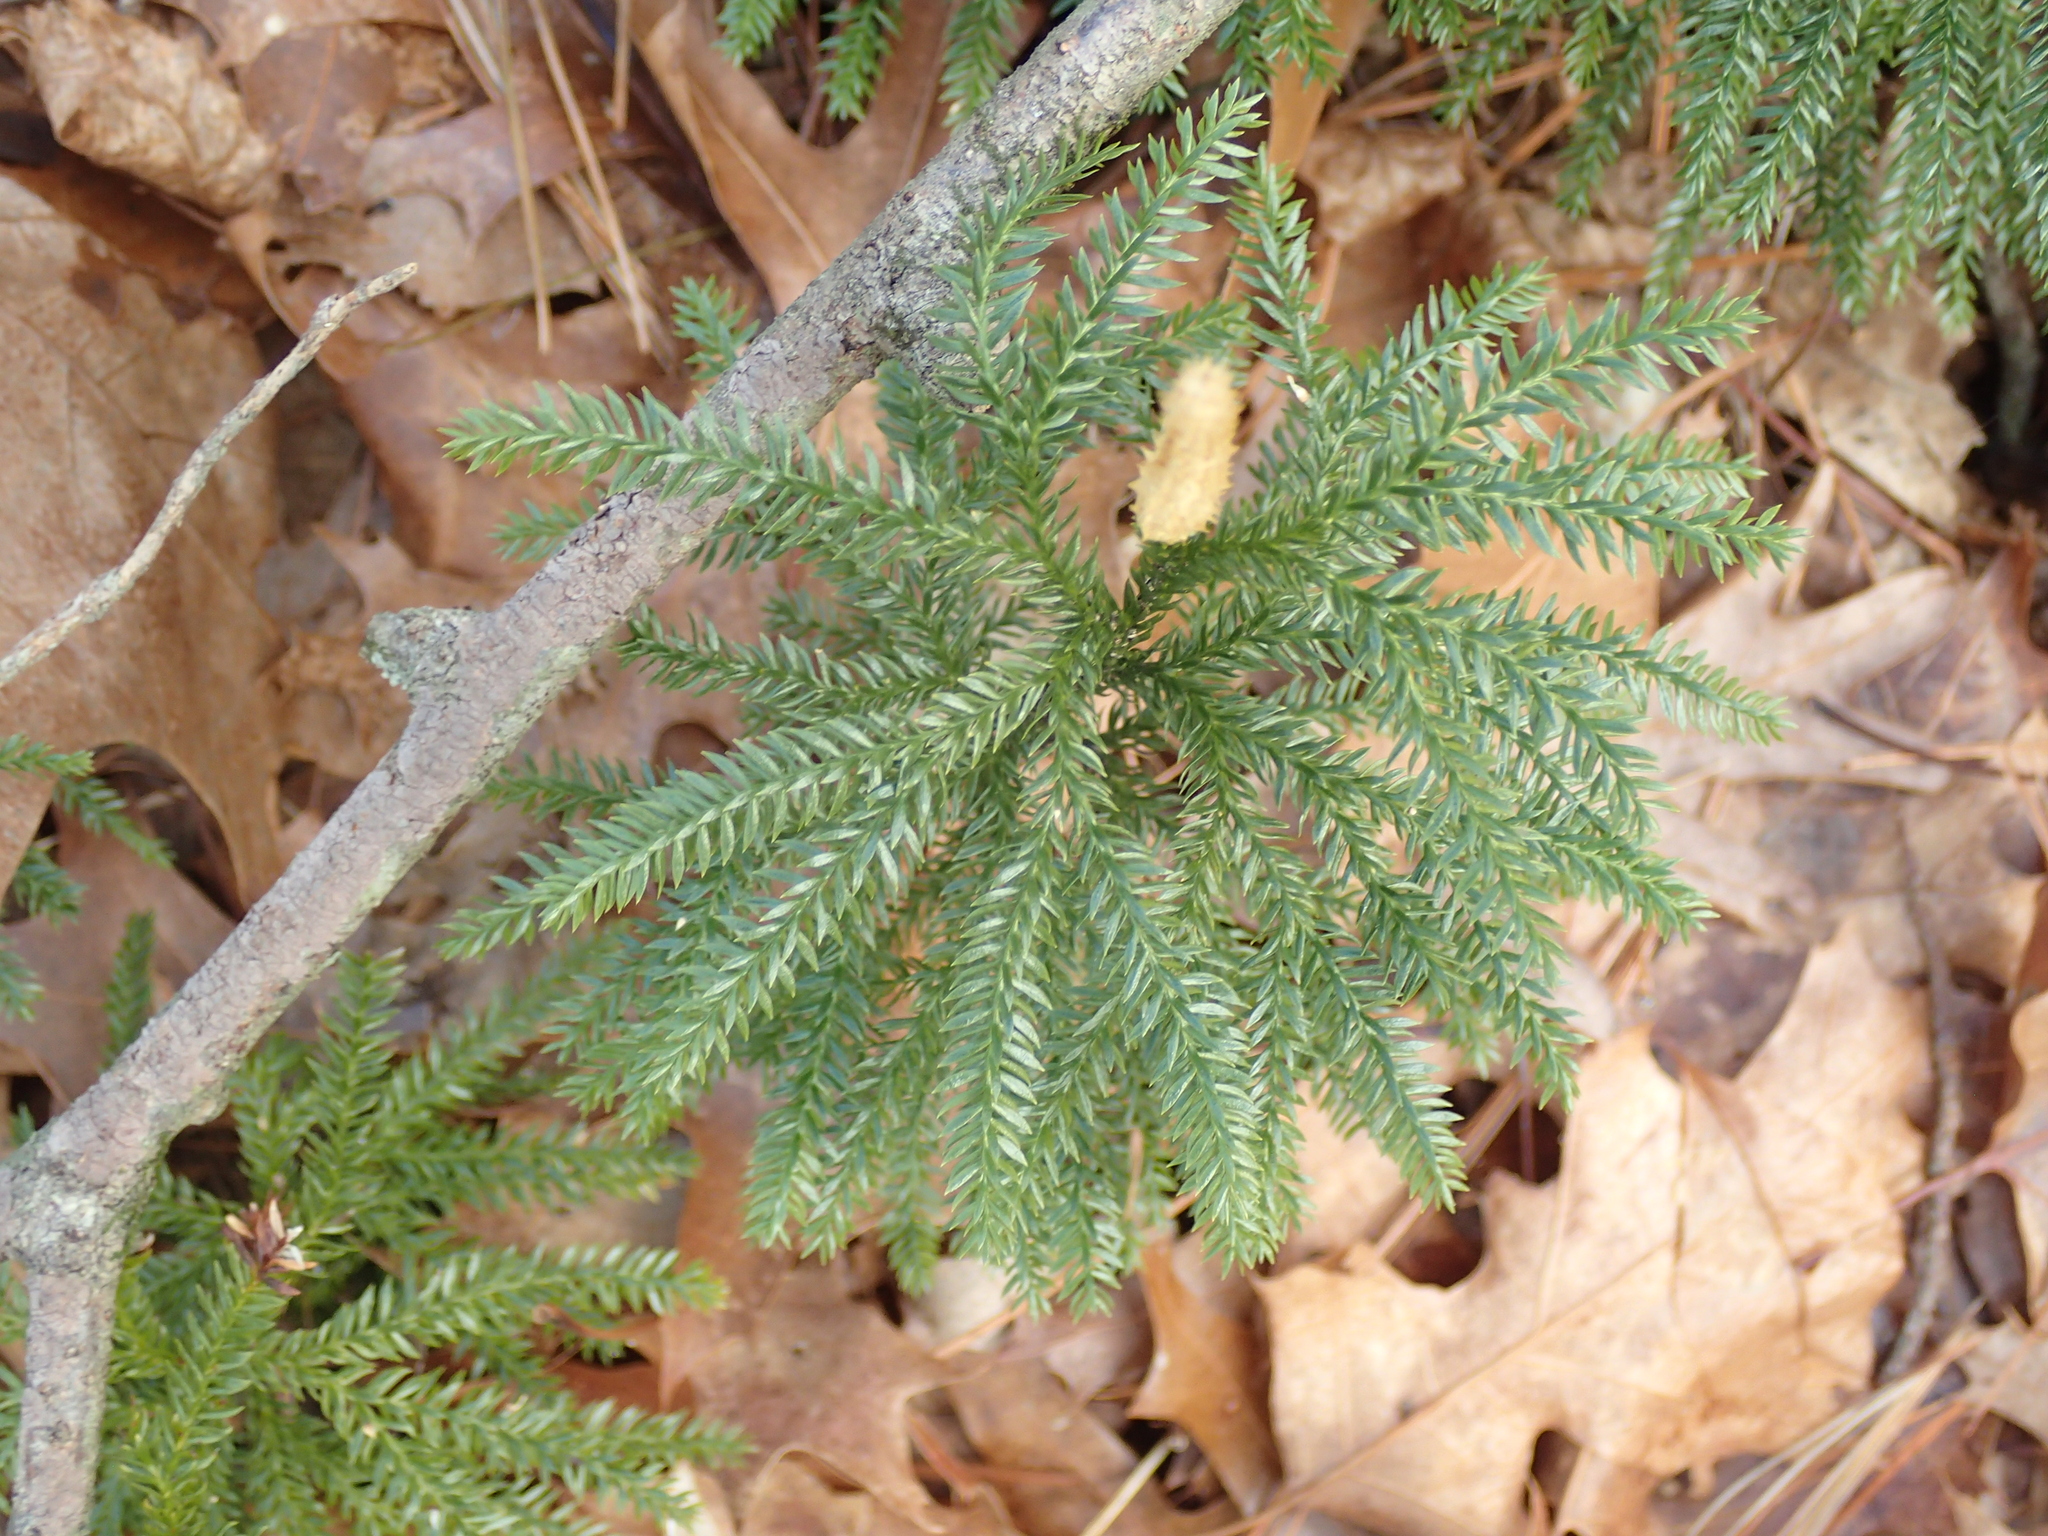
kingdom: Plantae
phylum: Tracheophyta
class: Lycopodiopsida
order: Lycopodiales
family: Lycopodiaceae
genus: Dendrolycopodium
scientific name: Dendrolycopodium obscurum
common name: Common ground-pine
